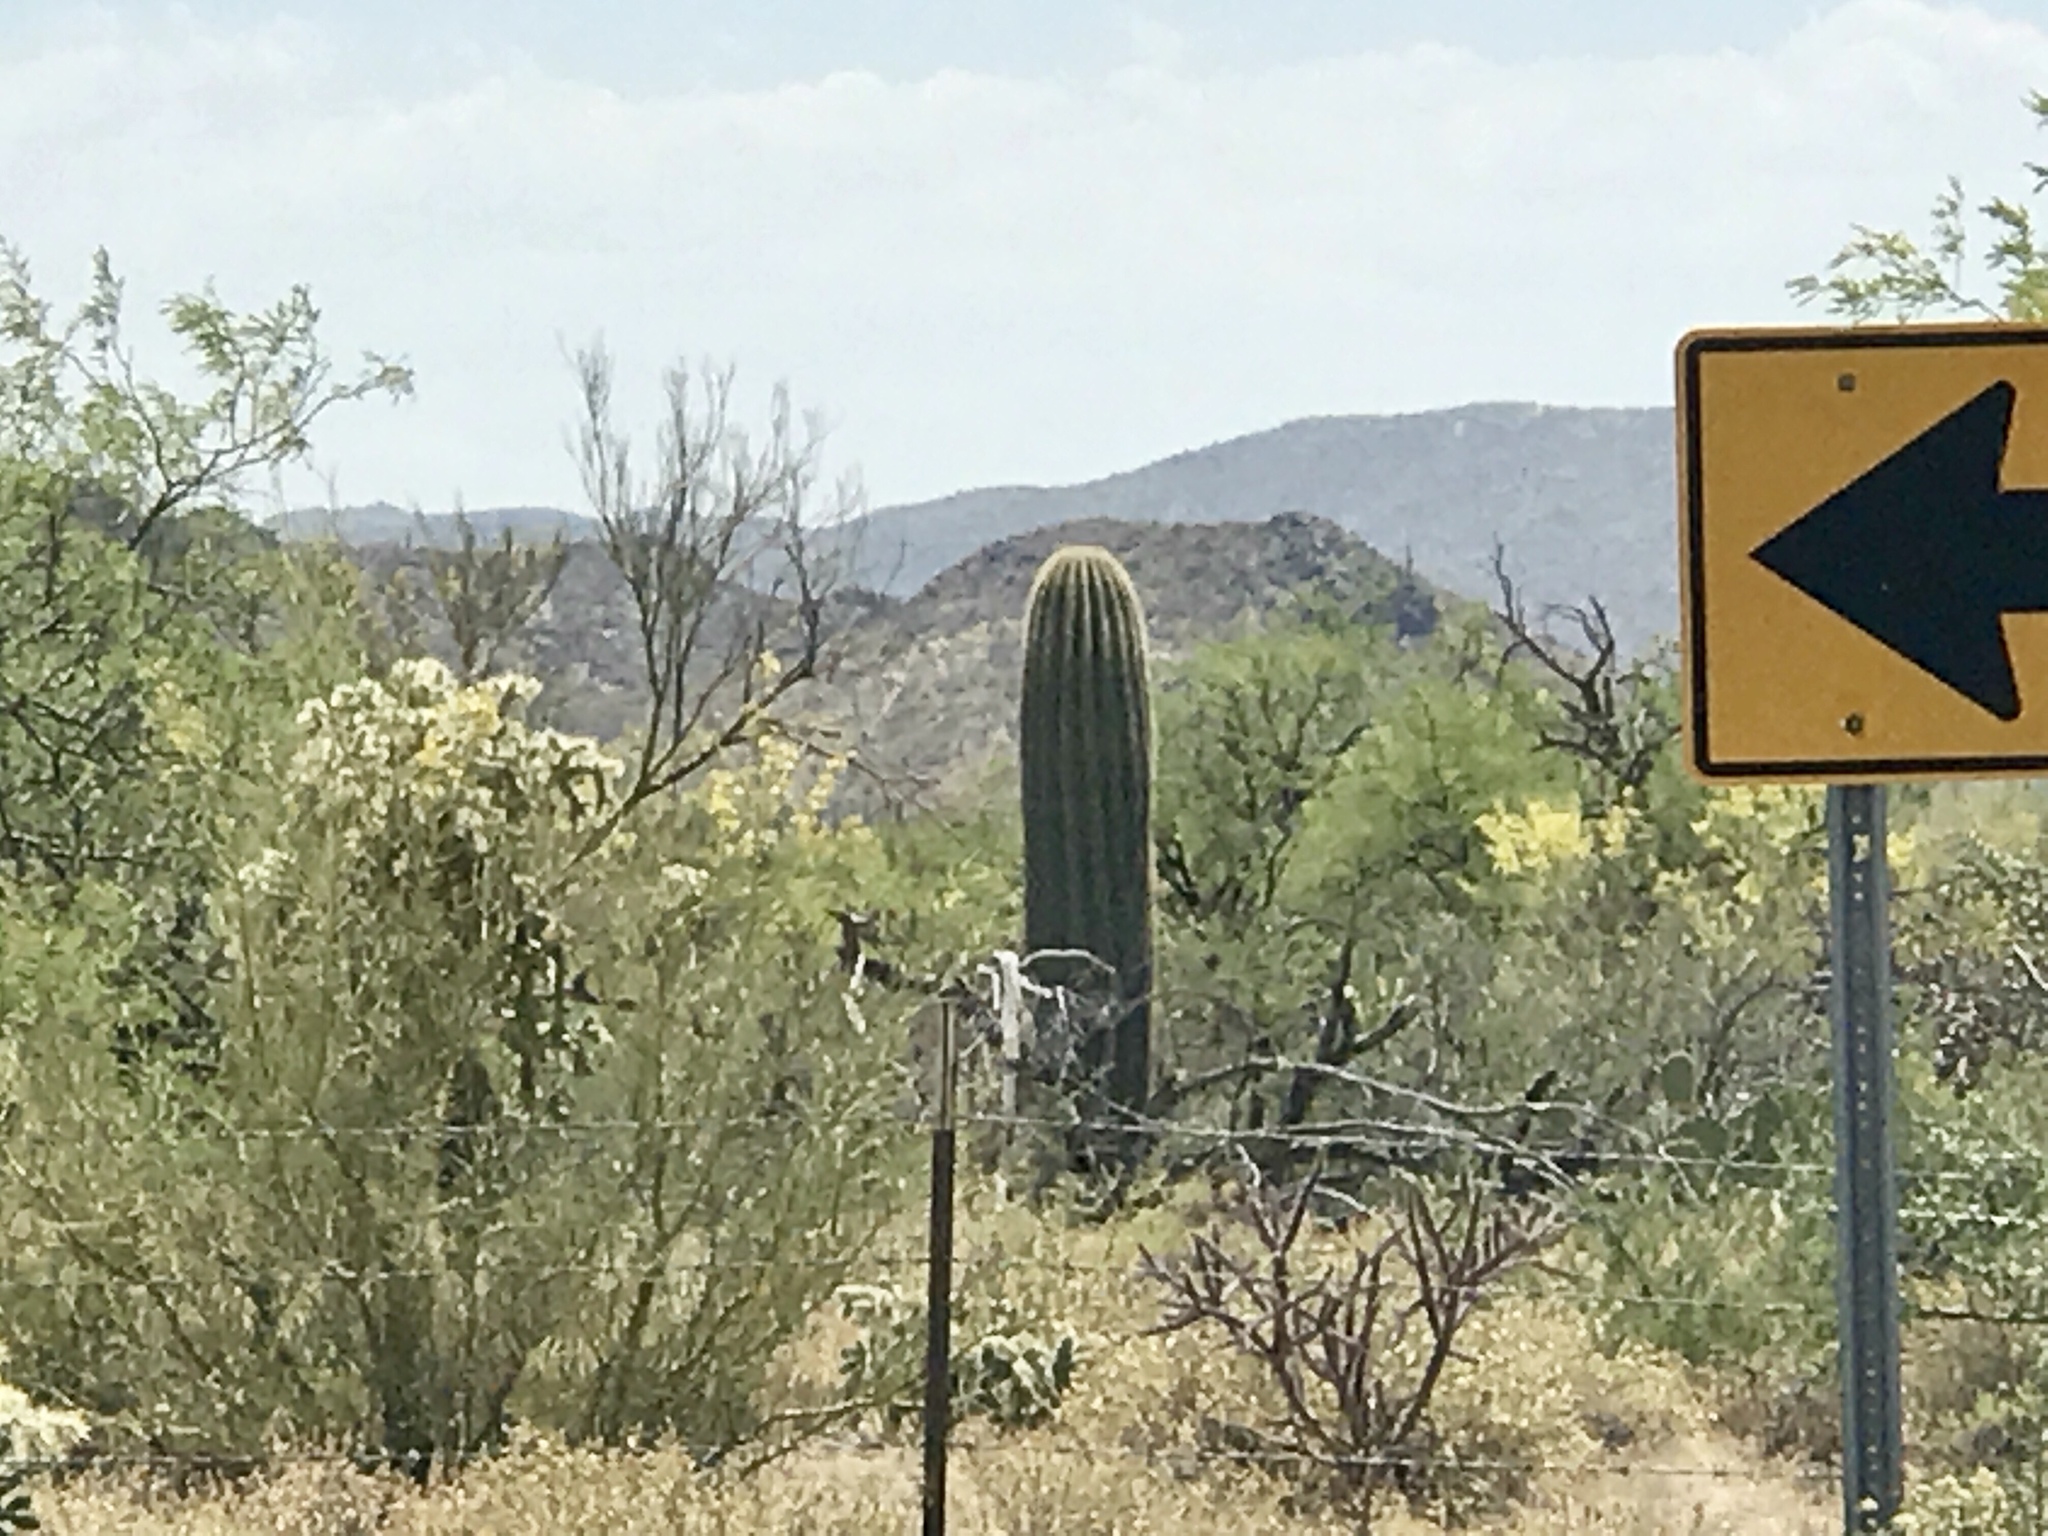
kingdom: Plantae
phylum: Tracheophyta
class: Magnoliopsida
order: Caryophyllales
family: Cactaceae
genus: Carnegiea
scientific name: Carnegiea gigantea
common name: Saguaro
